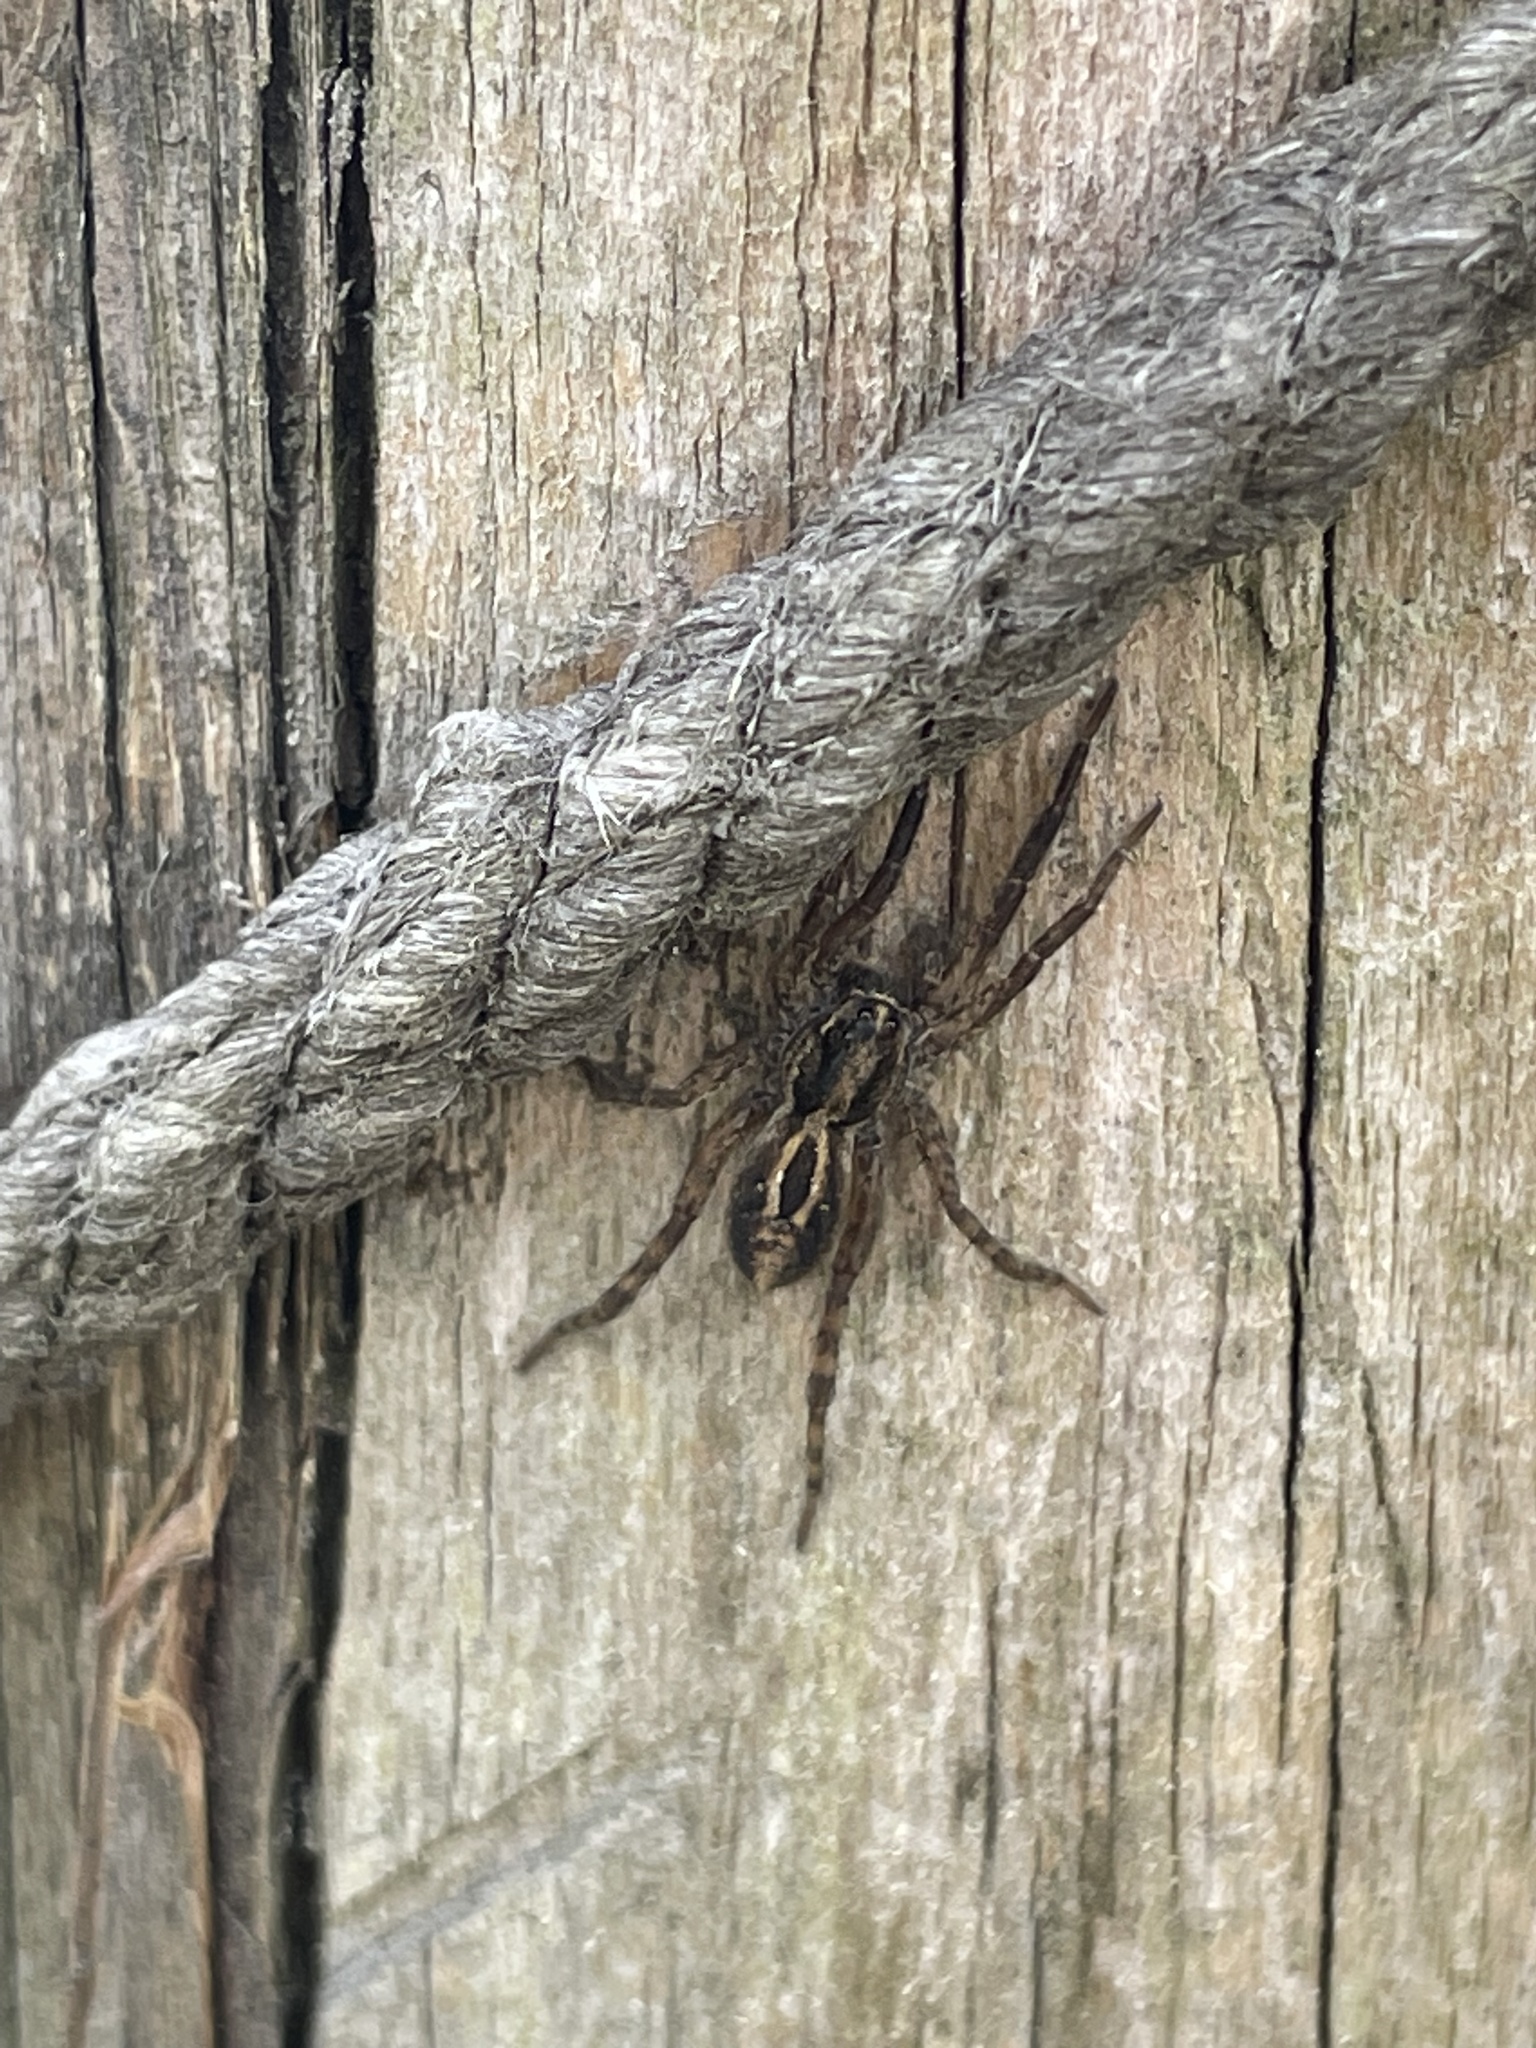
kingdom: Animalia
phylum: Arthropoda
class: Arachnida
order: Araneae
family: Lycosidae
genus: Schizocosa
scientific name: Schizocosa avida
